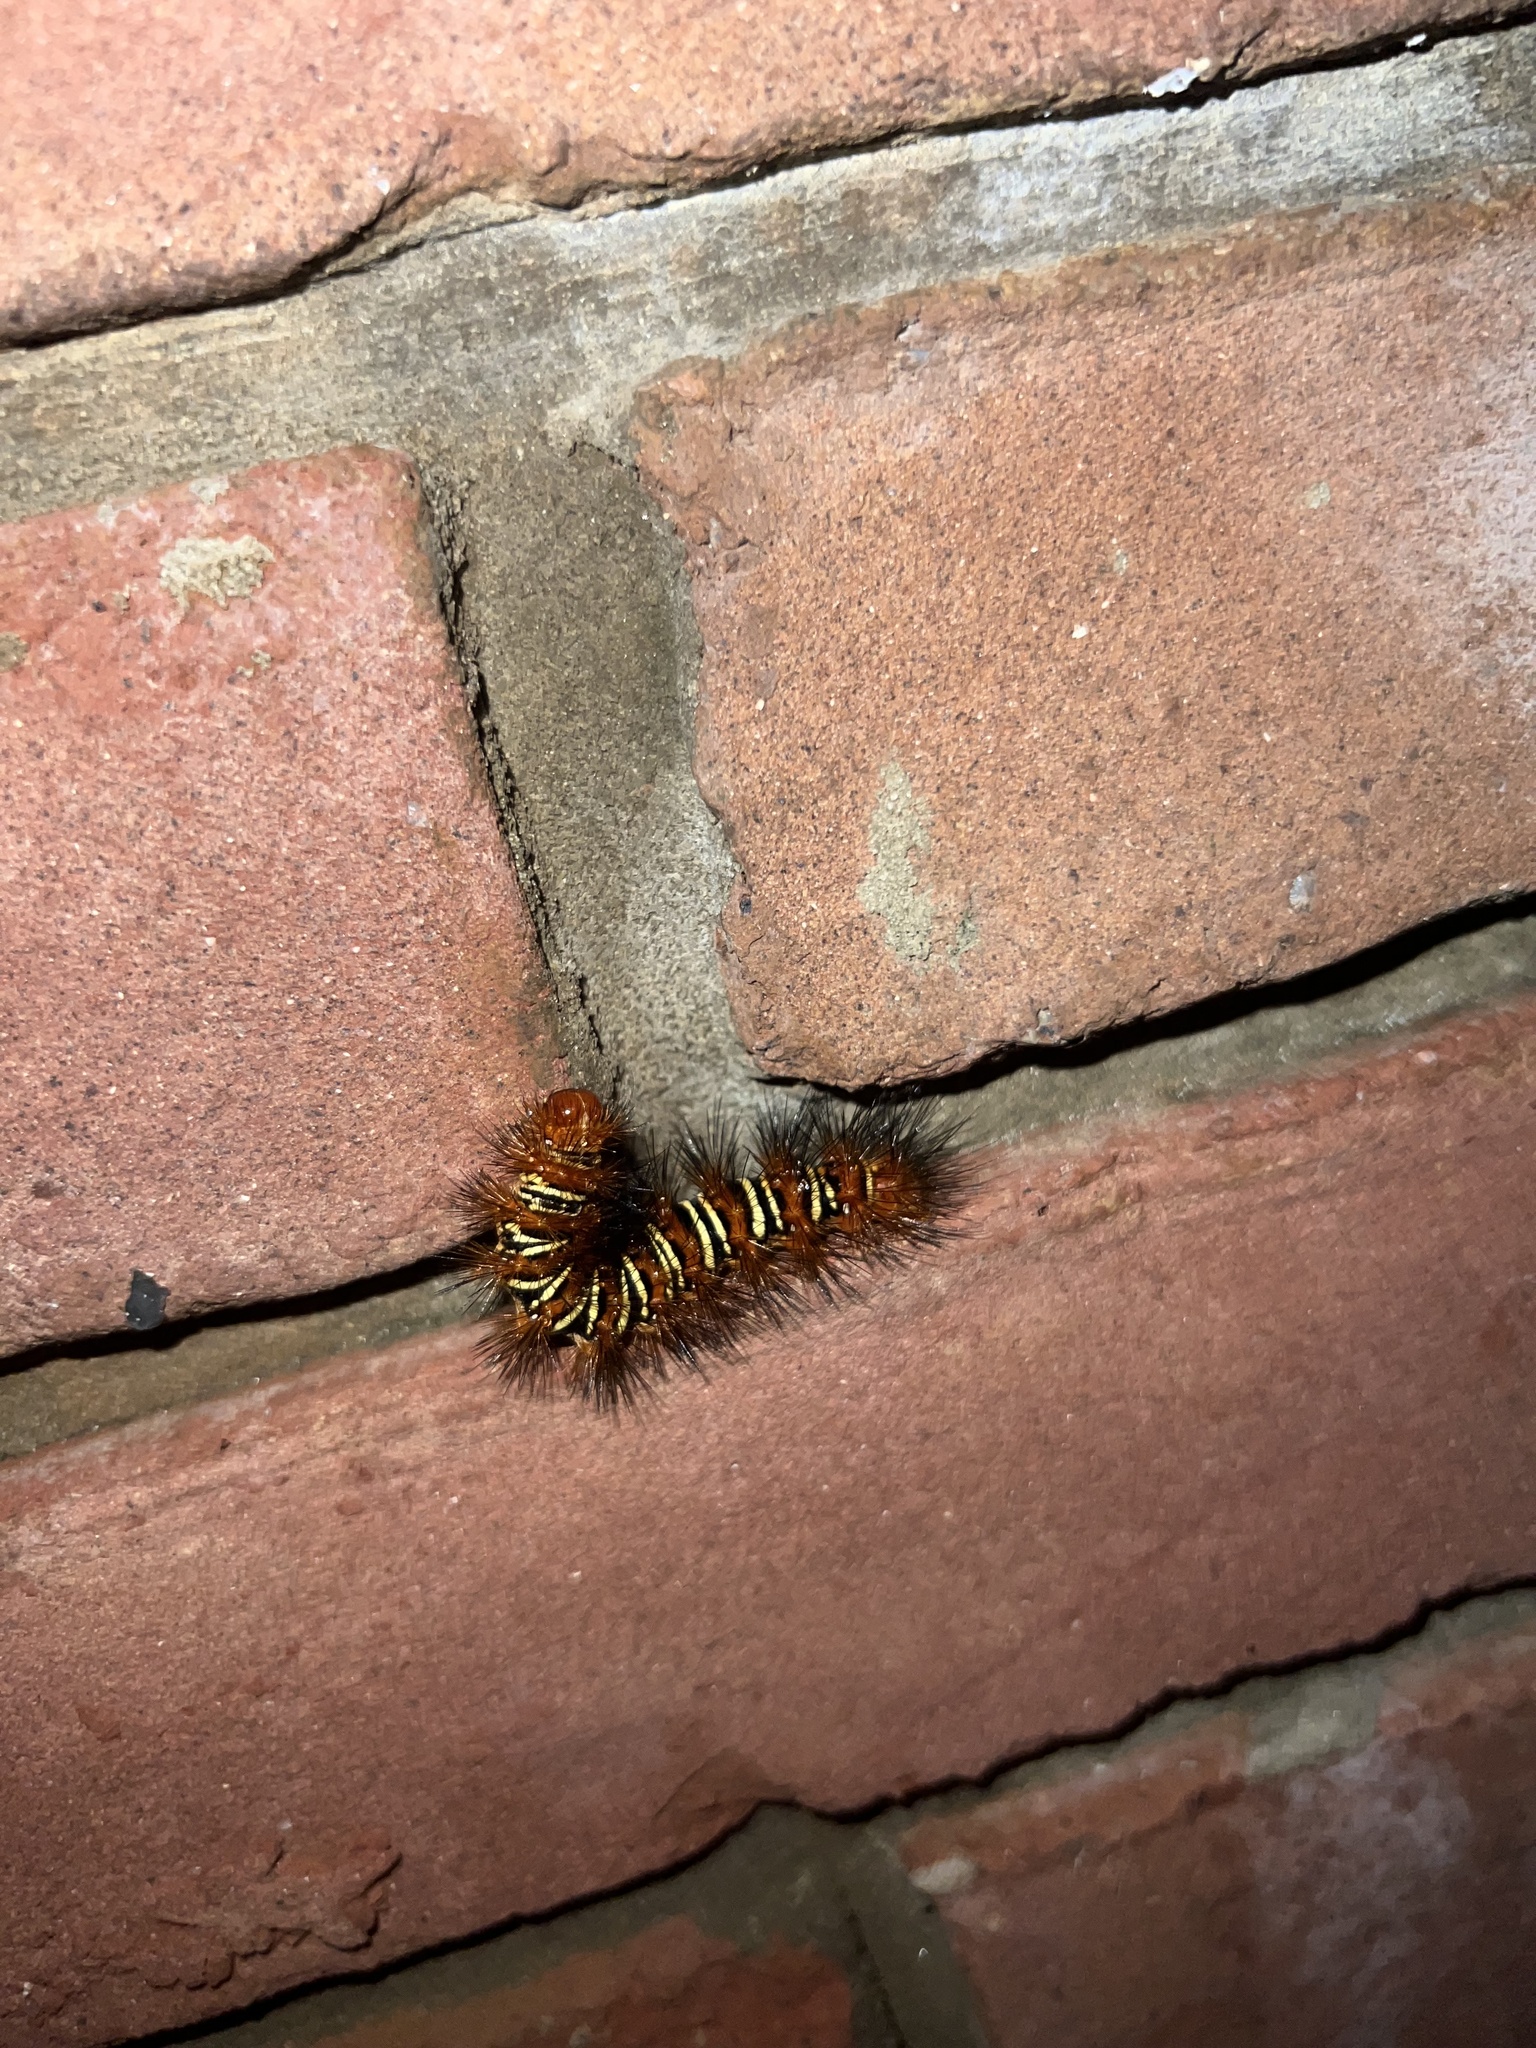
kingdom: Animalia
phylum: Arthropoda
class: Insecta
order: Lepidoptera
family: Erebidae
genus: Seirarctia
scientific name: Seirarctia echo
